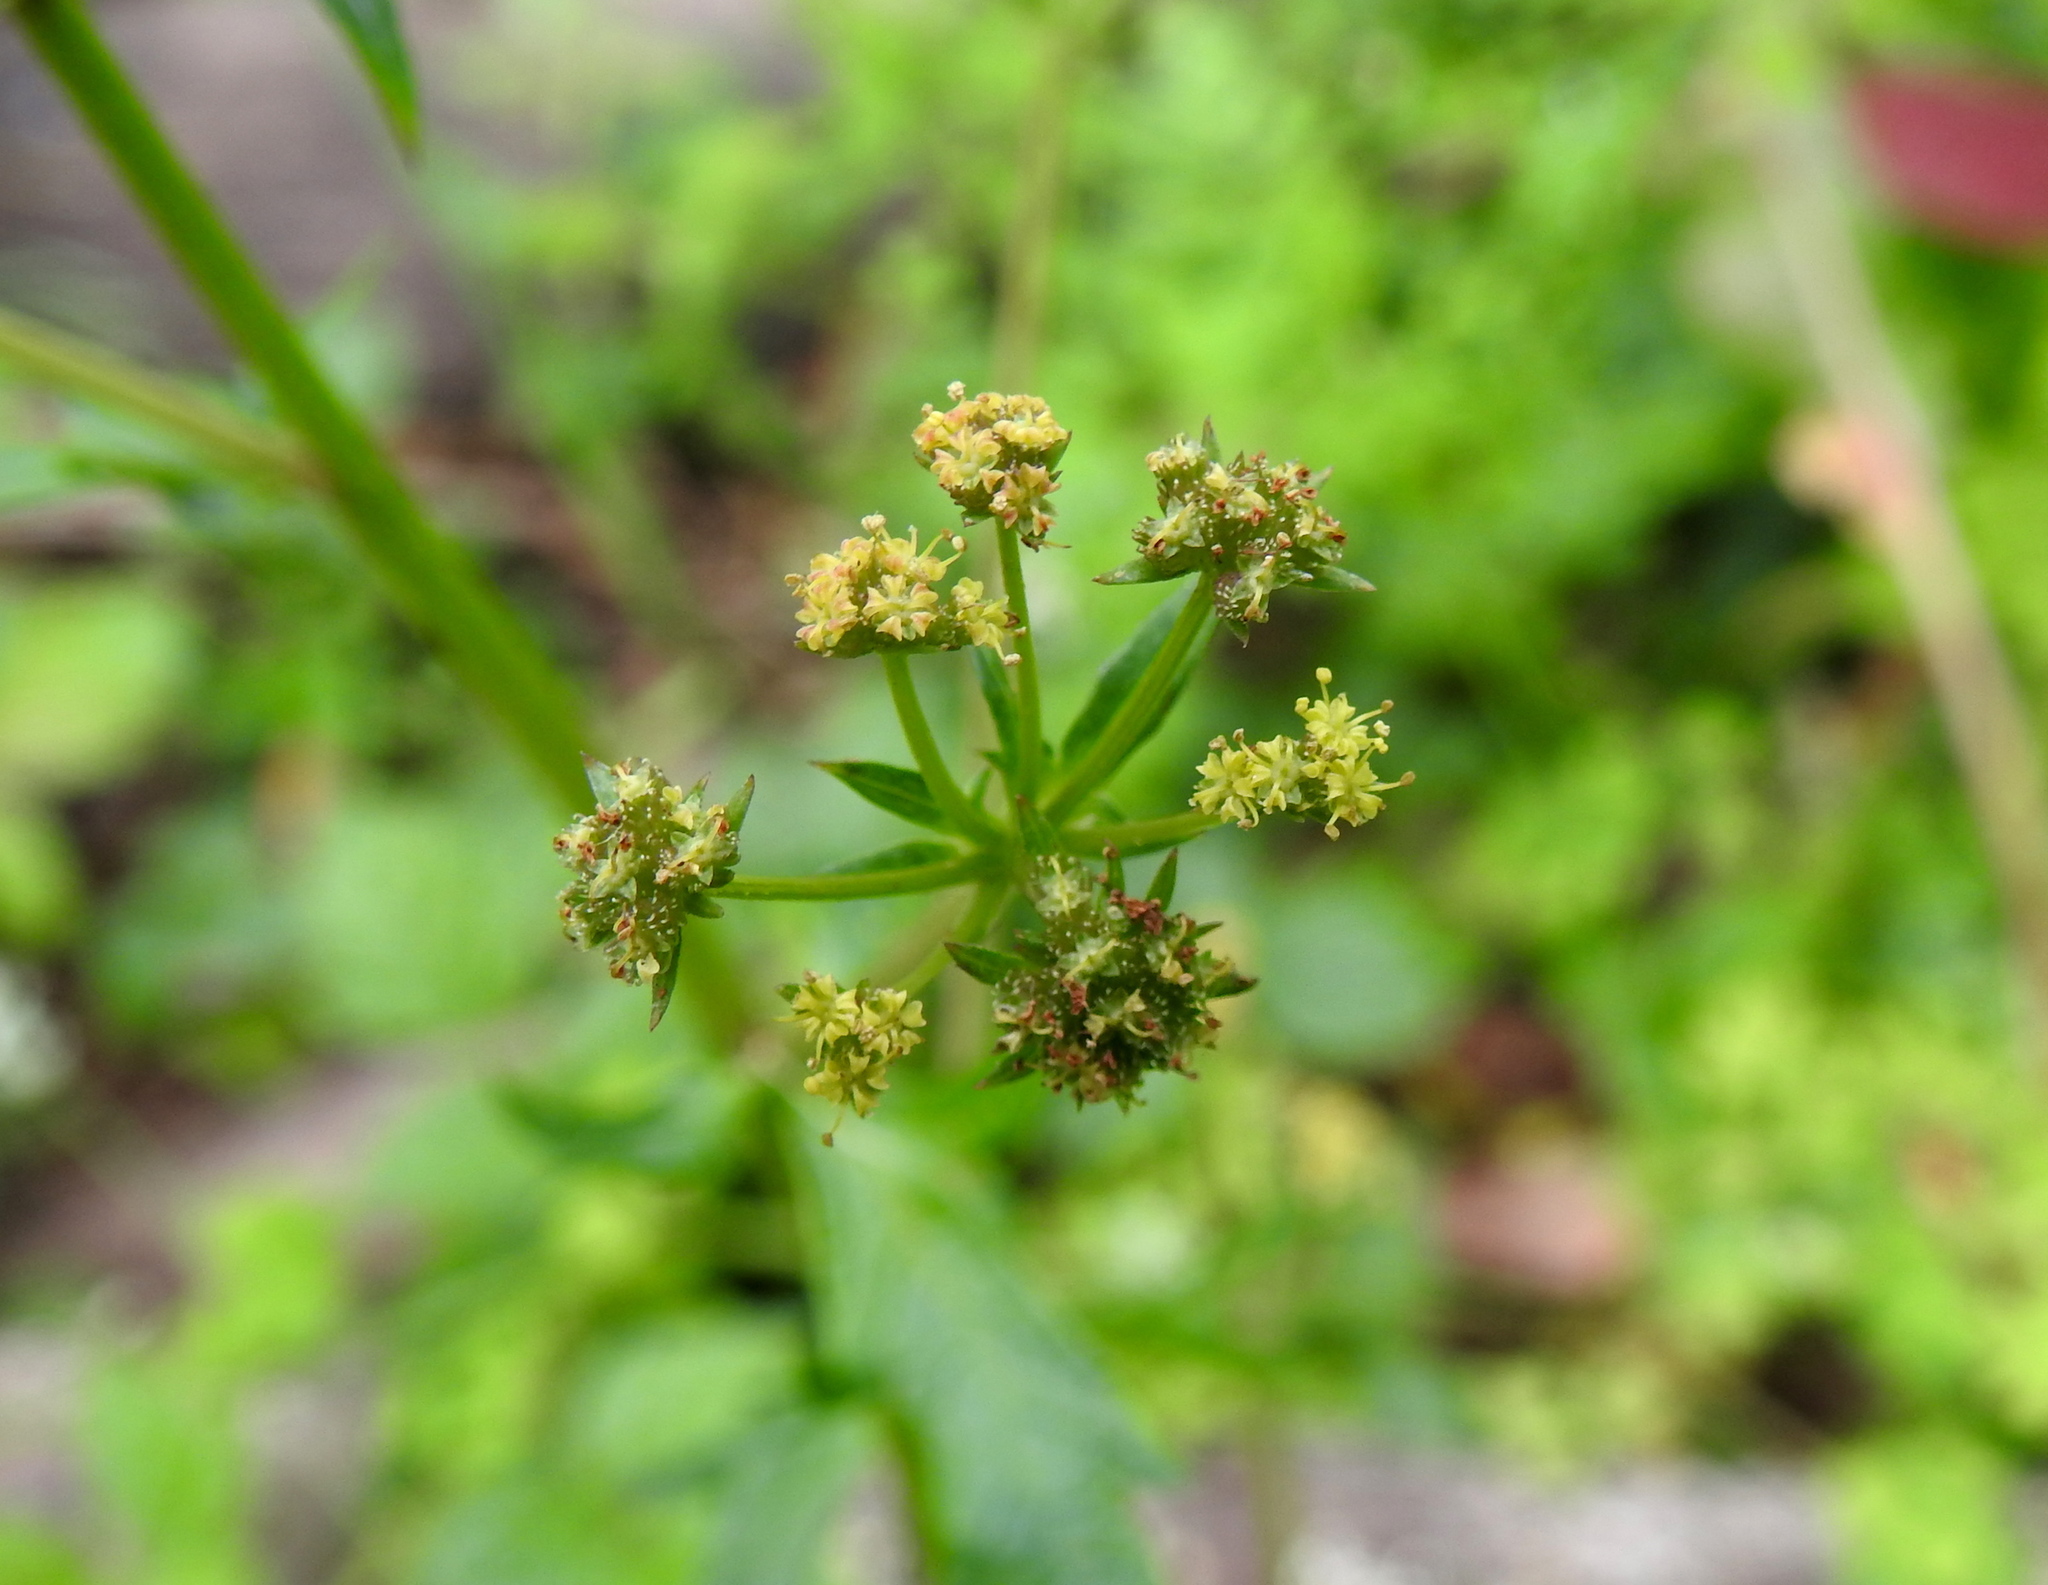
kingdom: Plantae
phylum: Tracheophyta
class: Magnoliopsida
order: Apiales
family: Apiaceae
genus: Sanicula
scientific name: Sanicula crassicaulis
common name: Western snakeroot
